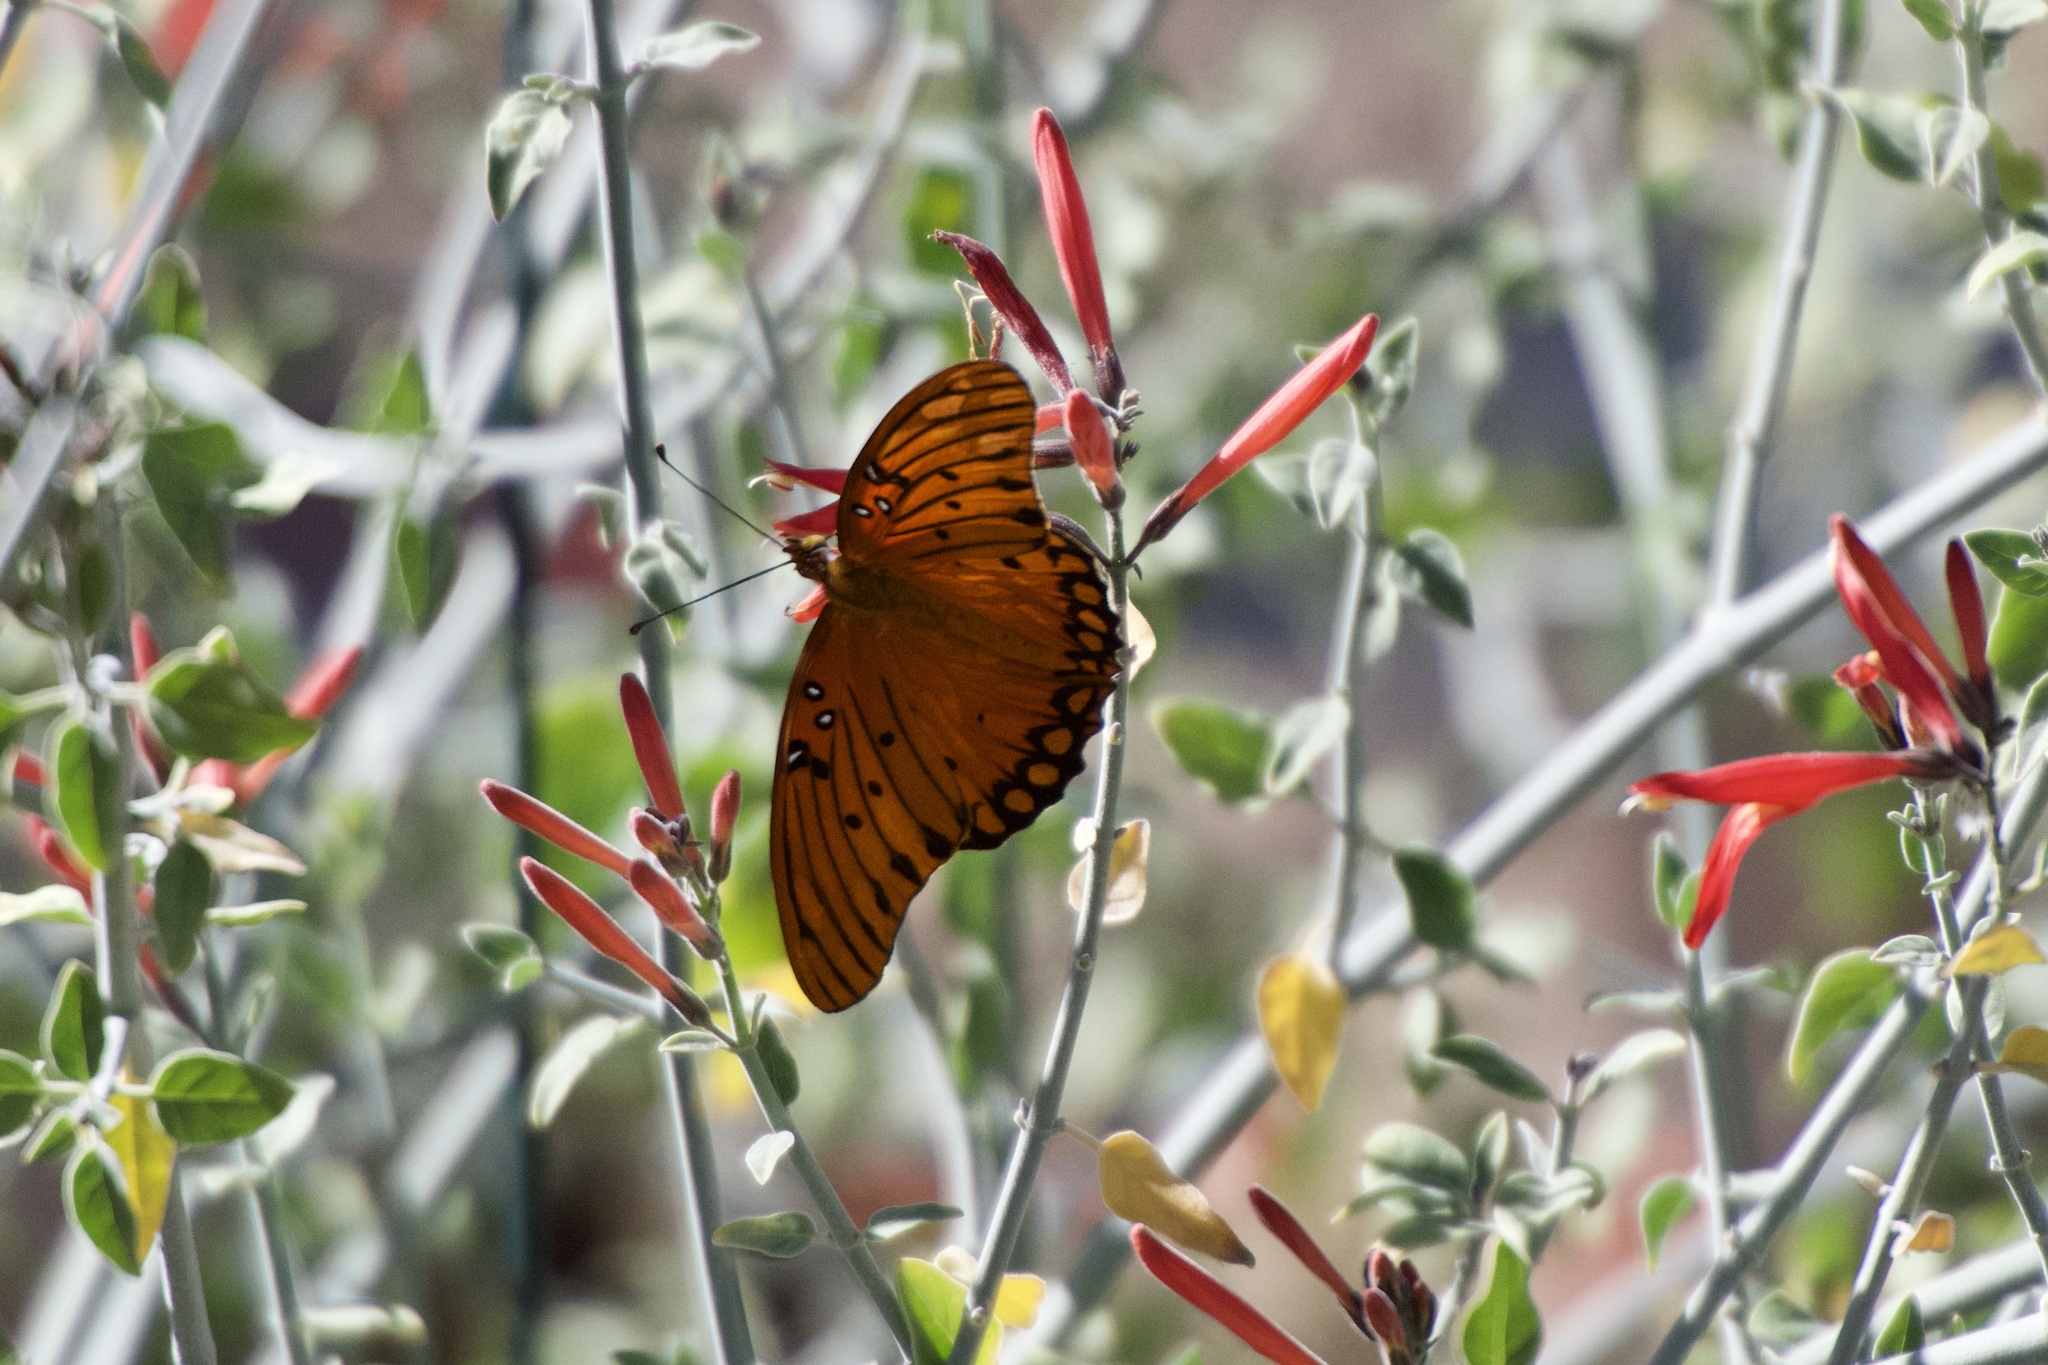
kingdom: Animalia
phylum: Arthropoda
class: Insecta
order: Lepidoptera
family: Nymphalidae
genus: Dione
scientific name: Dione vanillae
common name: Gulf fritillary
